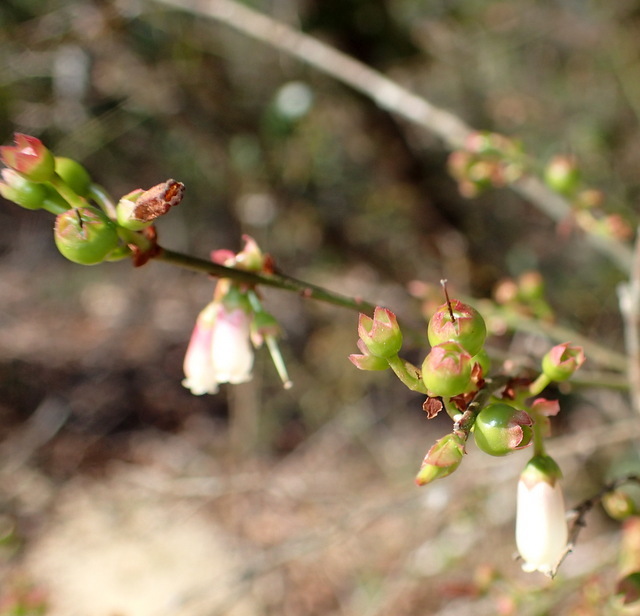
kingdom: Plantae
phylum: Tracheophyta
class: Magnoliopsida
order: Ericales
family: Ericaceae
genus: Vaccinium
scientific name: Vaccinium corymbosum
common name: Blueberry
